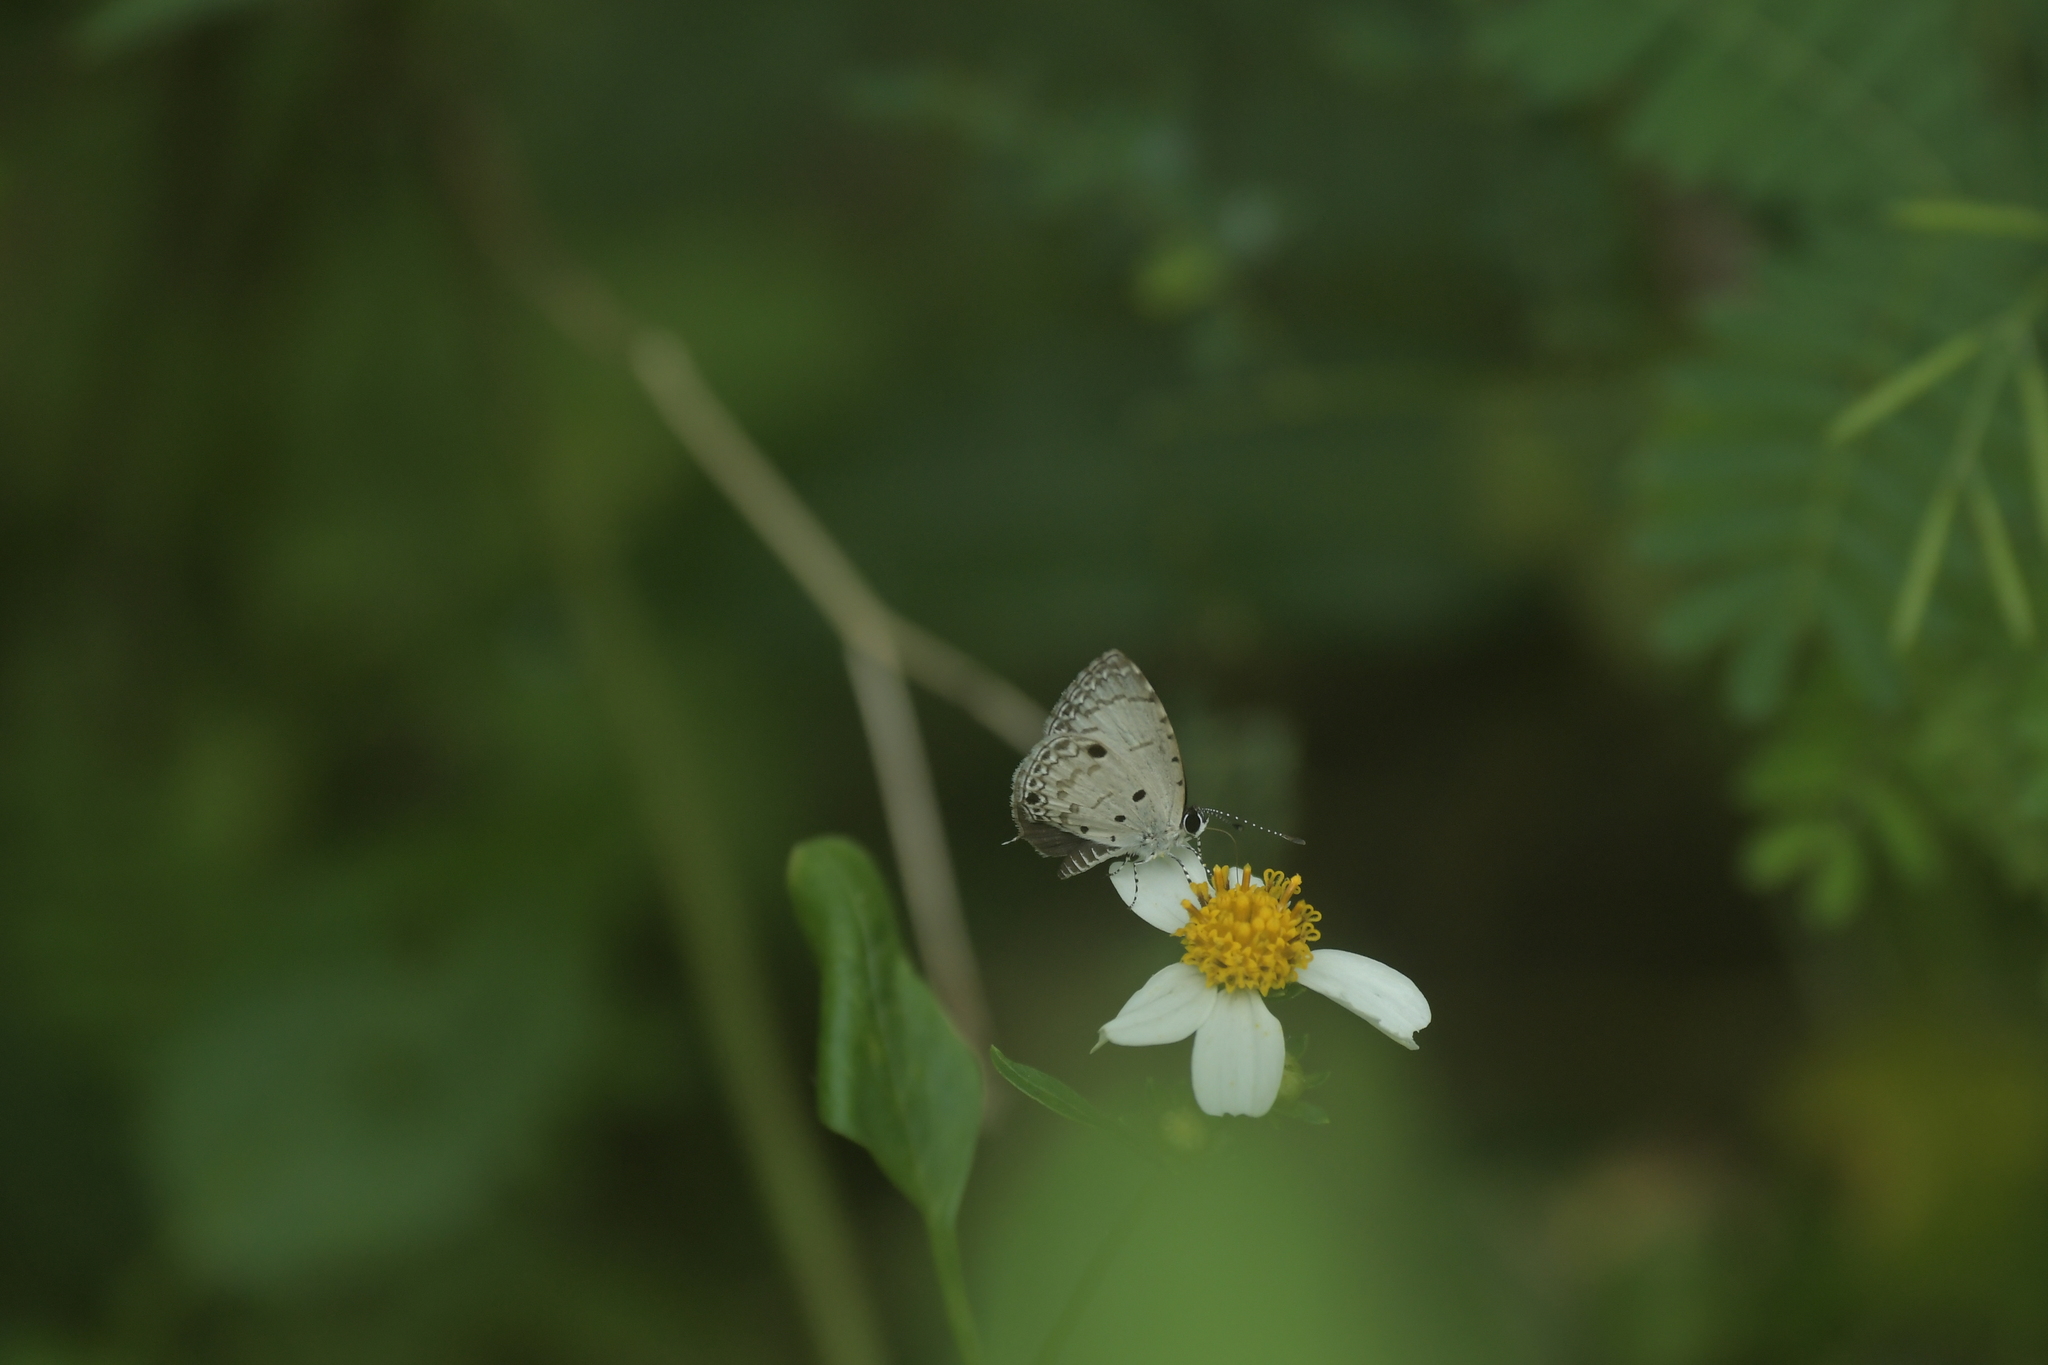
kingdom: Animalia
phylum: Arthropoda
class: Insecta
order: Lepidoptera
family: Lycaenidae
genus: Megisba
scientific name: Megisba malaya
